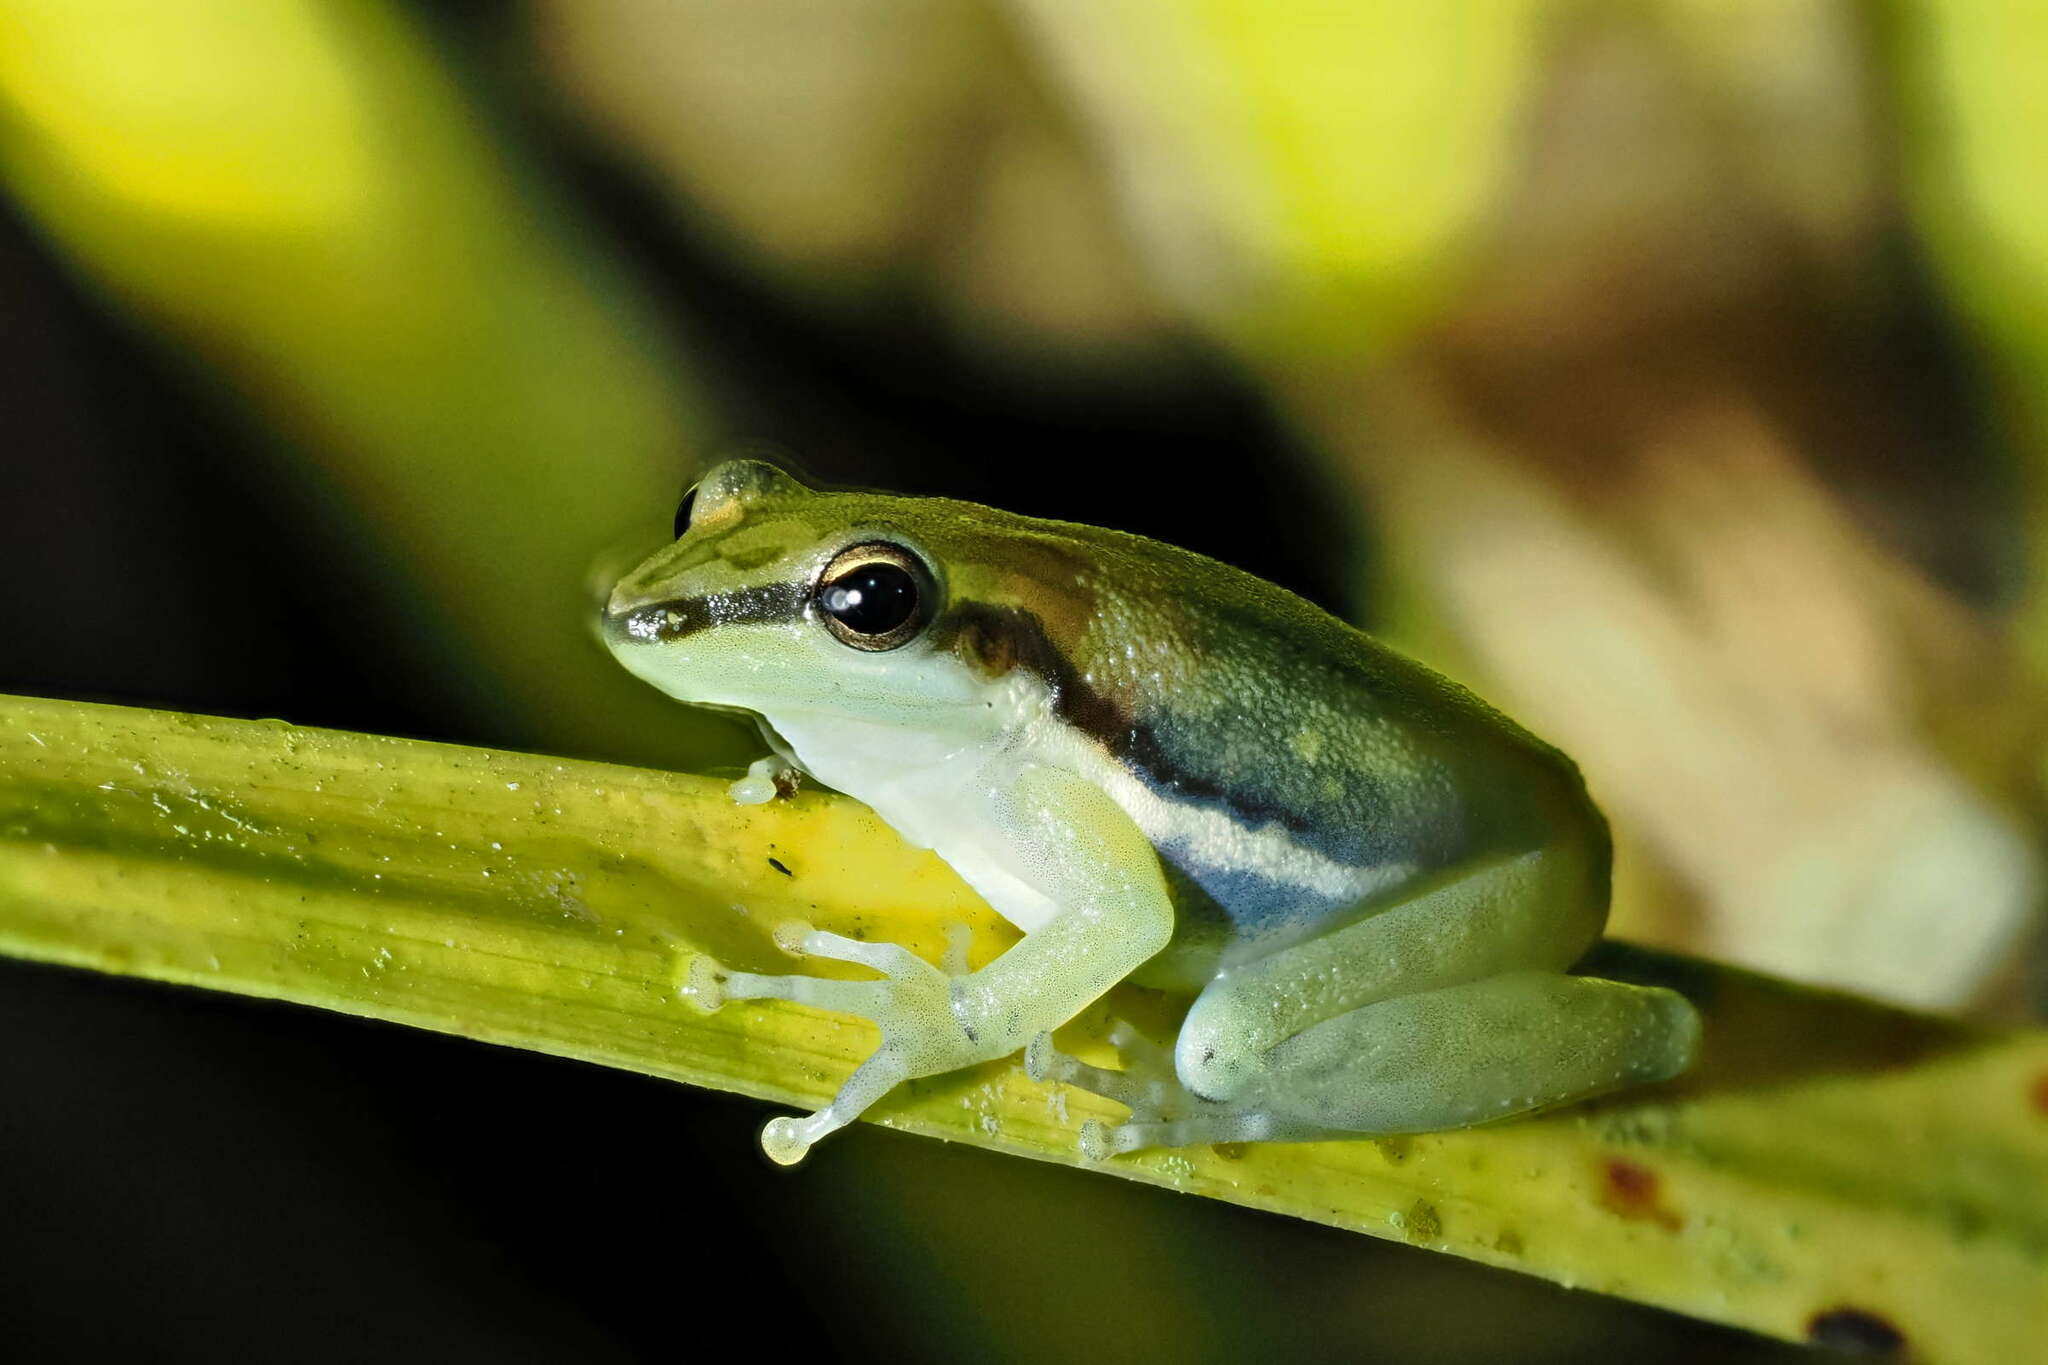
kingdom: Animalia
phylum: Chordata
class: Amphibia
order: Anura
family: Hylidae
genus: Scarthyla
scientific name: Scarthyla vigilans
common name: Maracaibo basin treefrog
